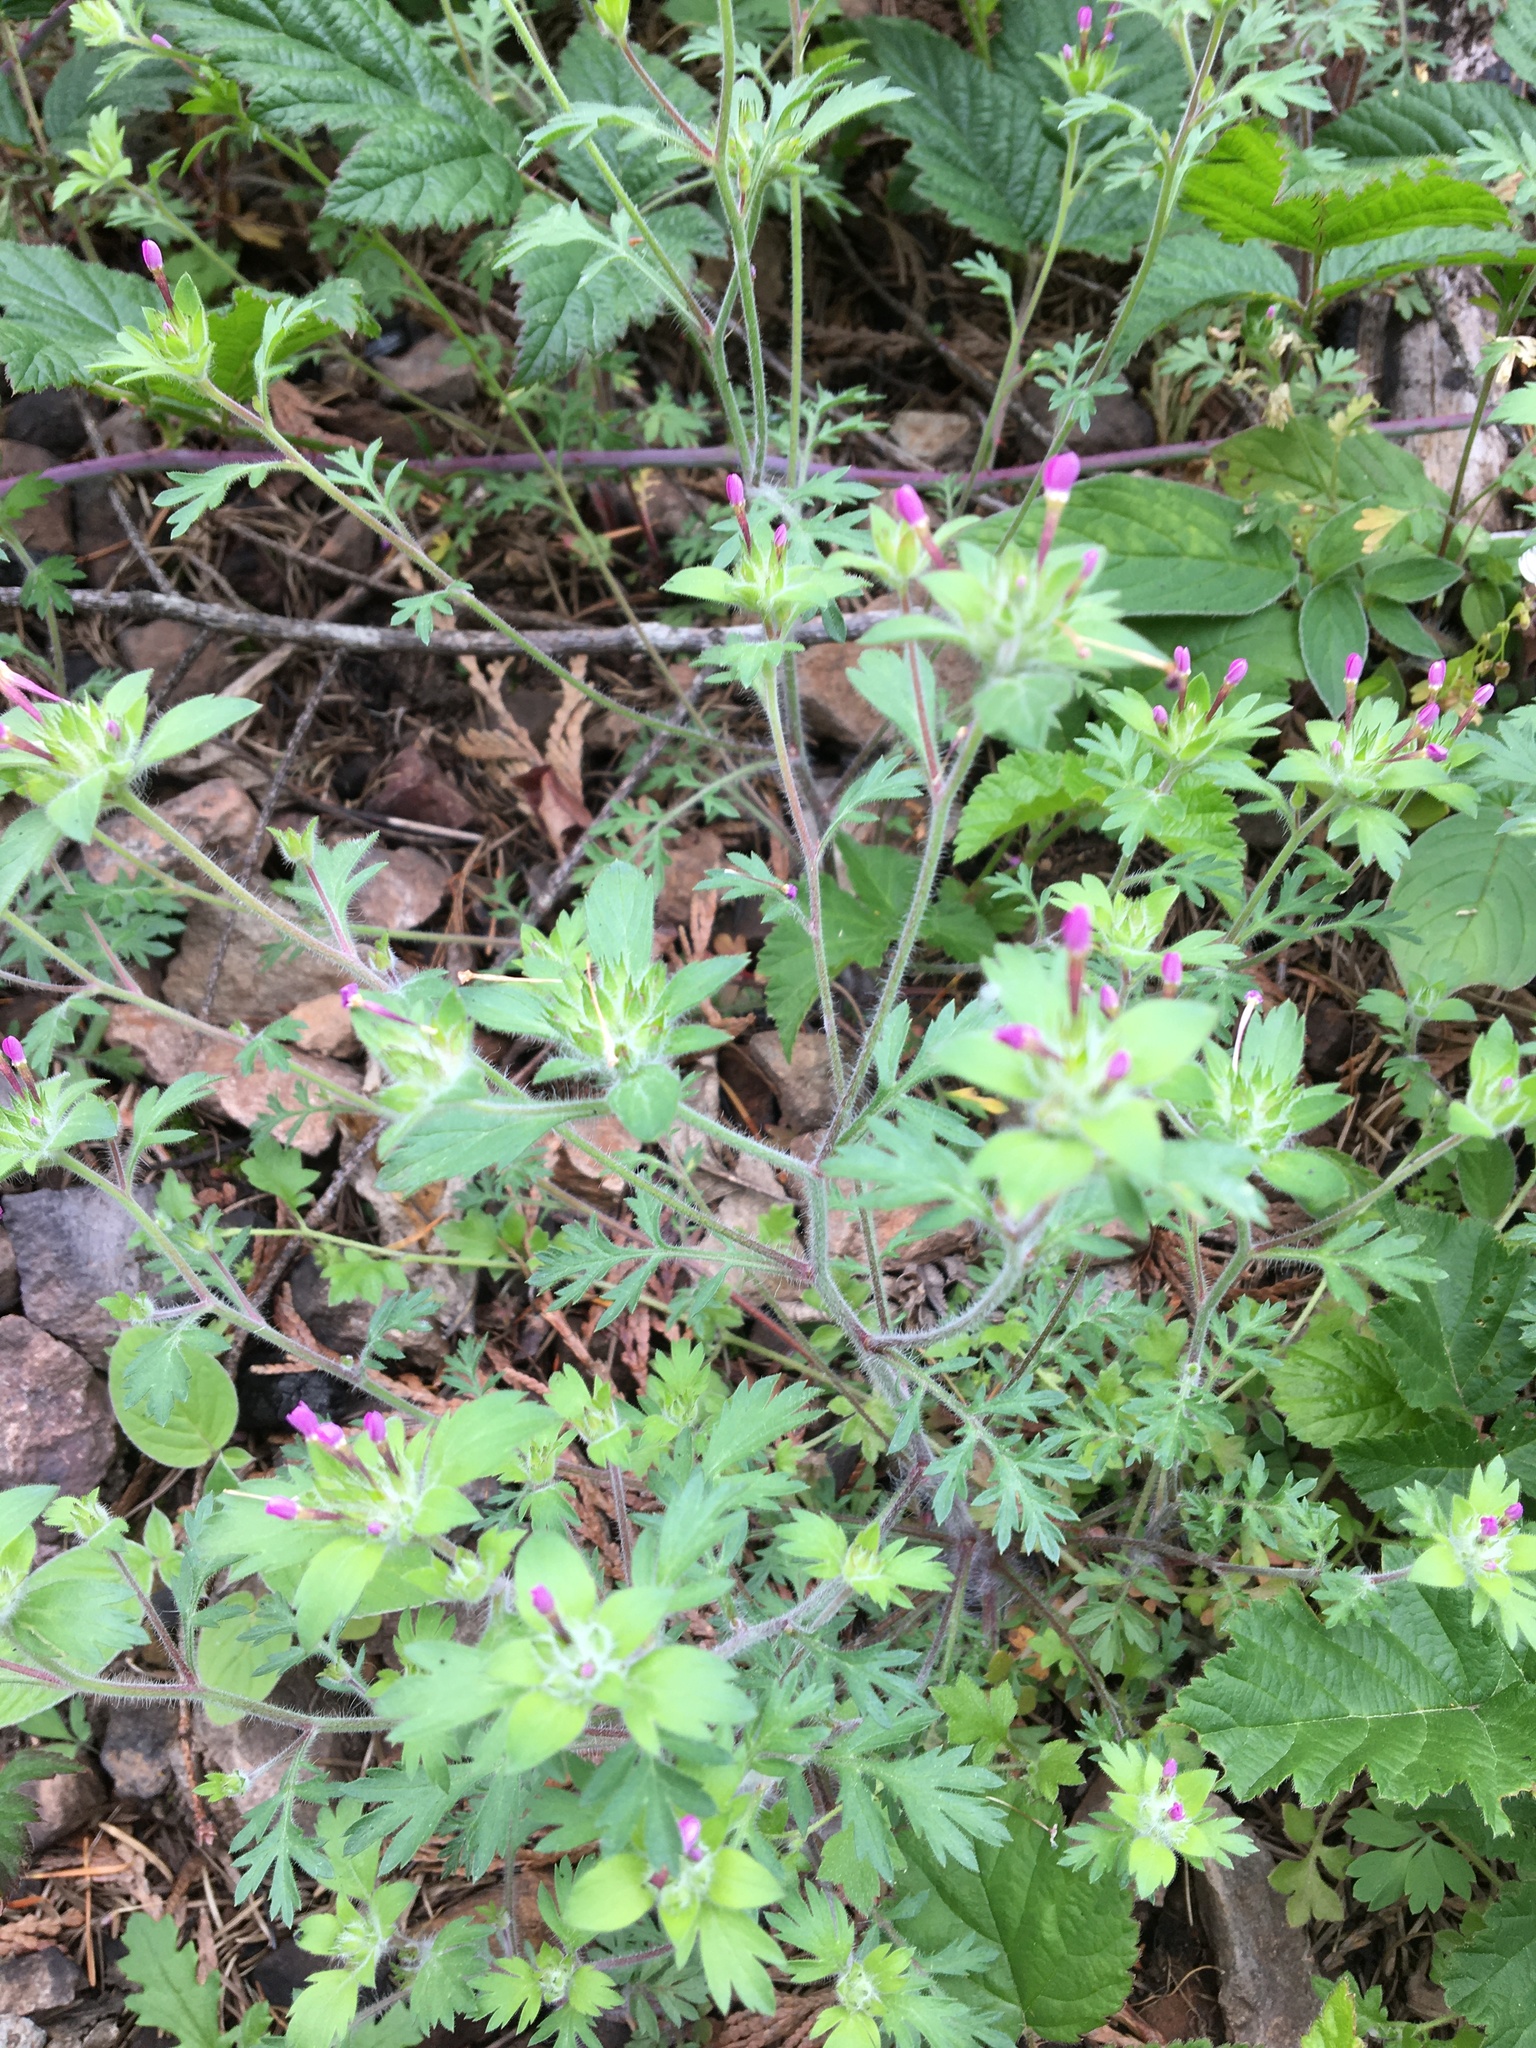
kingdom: Plantae
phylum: Tracheophyta
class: Magnoliopsida
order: Ericales
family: Polemoniaceae
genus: Collomia
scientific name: Collomia heterophylla
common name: Variable-leaved collomia
